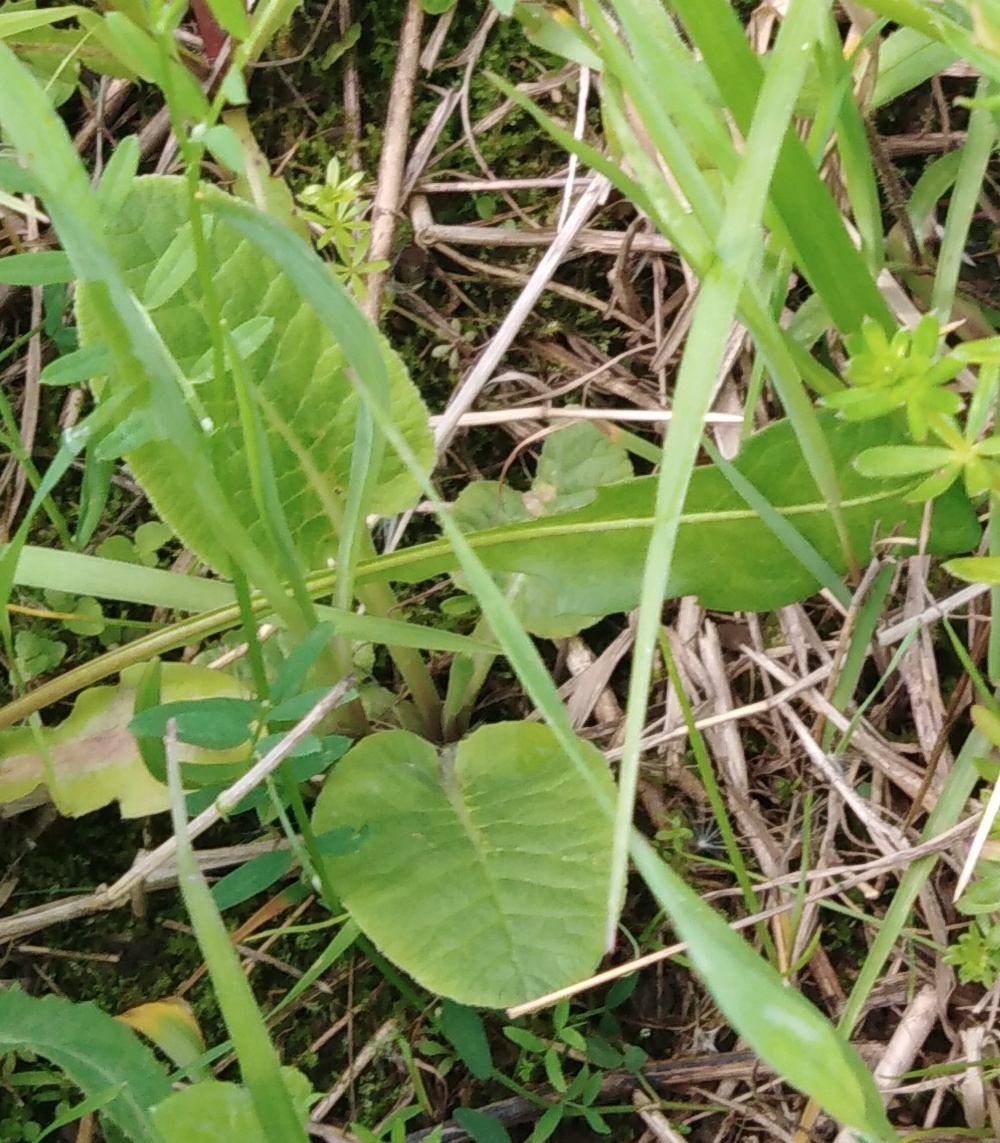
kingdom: Plantae
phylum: Tracheophyta
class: Magnoliopsida
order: Ericales
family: Primulaceae
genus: Primula
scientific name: Primula veris
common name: Cowslip
